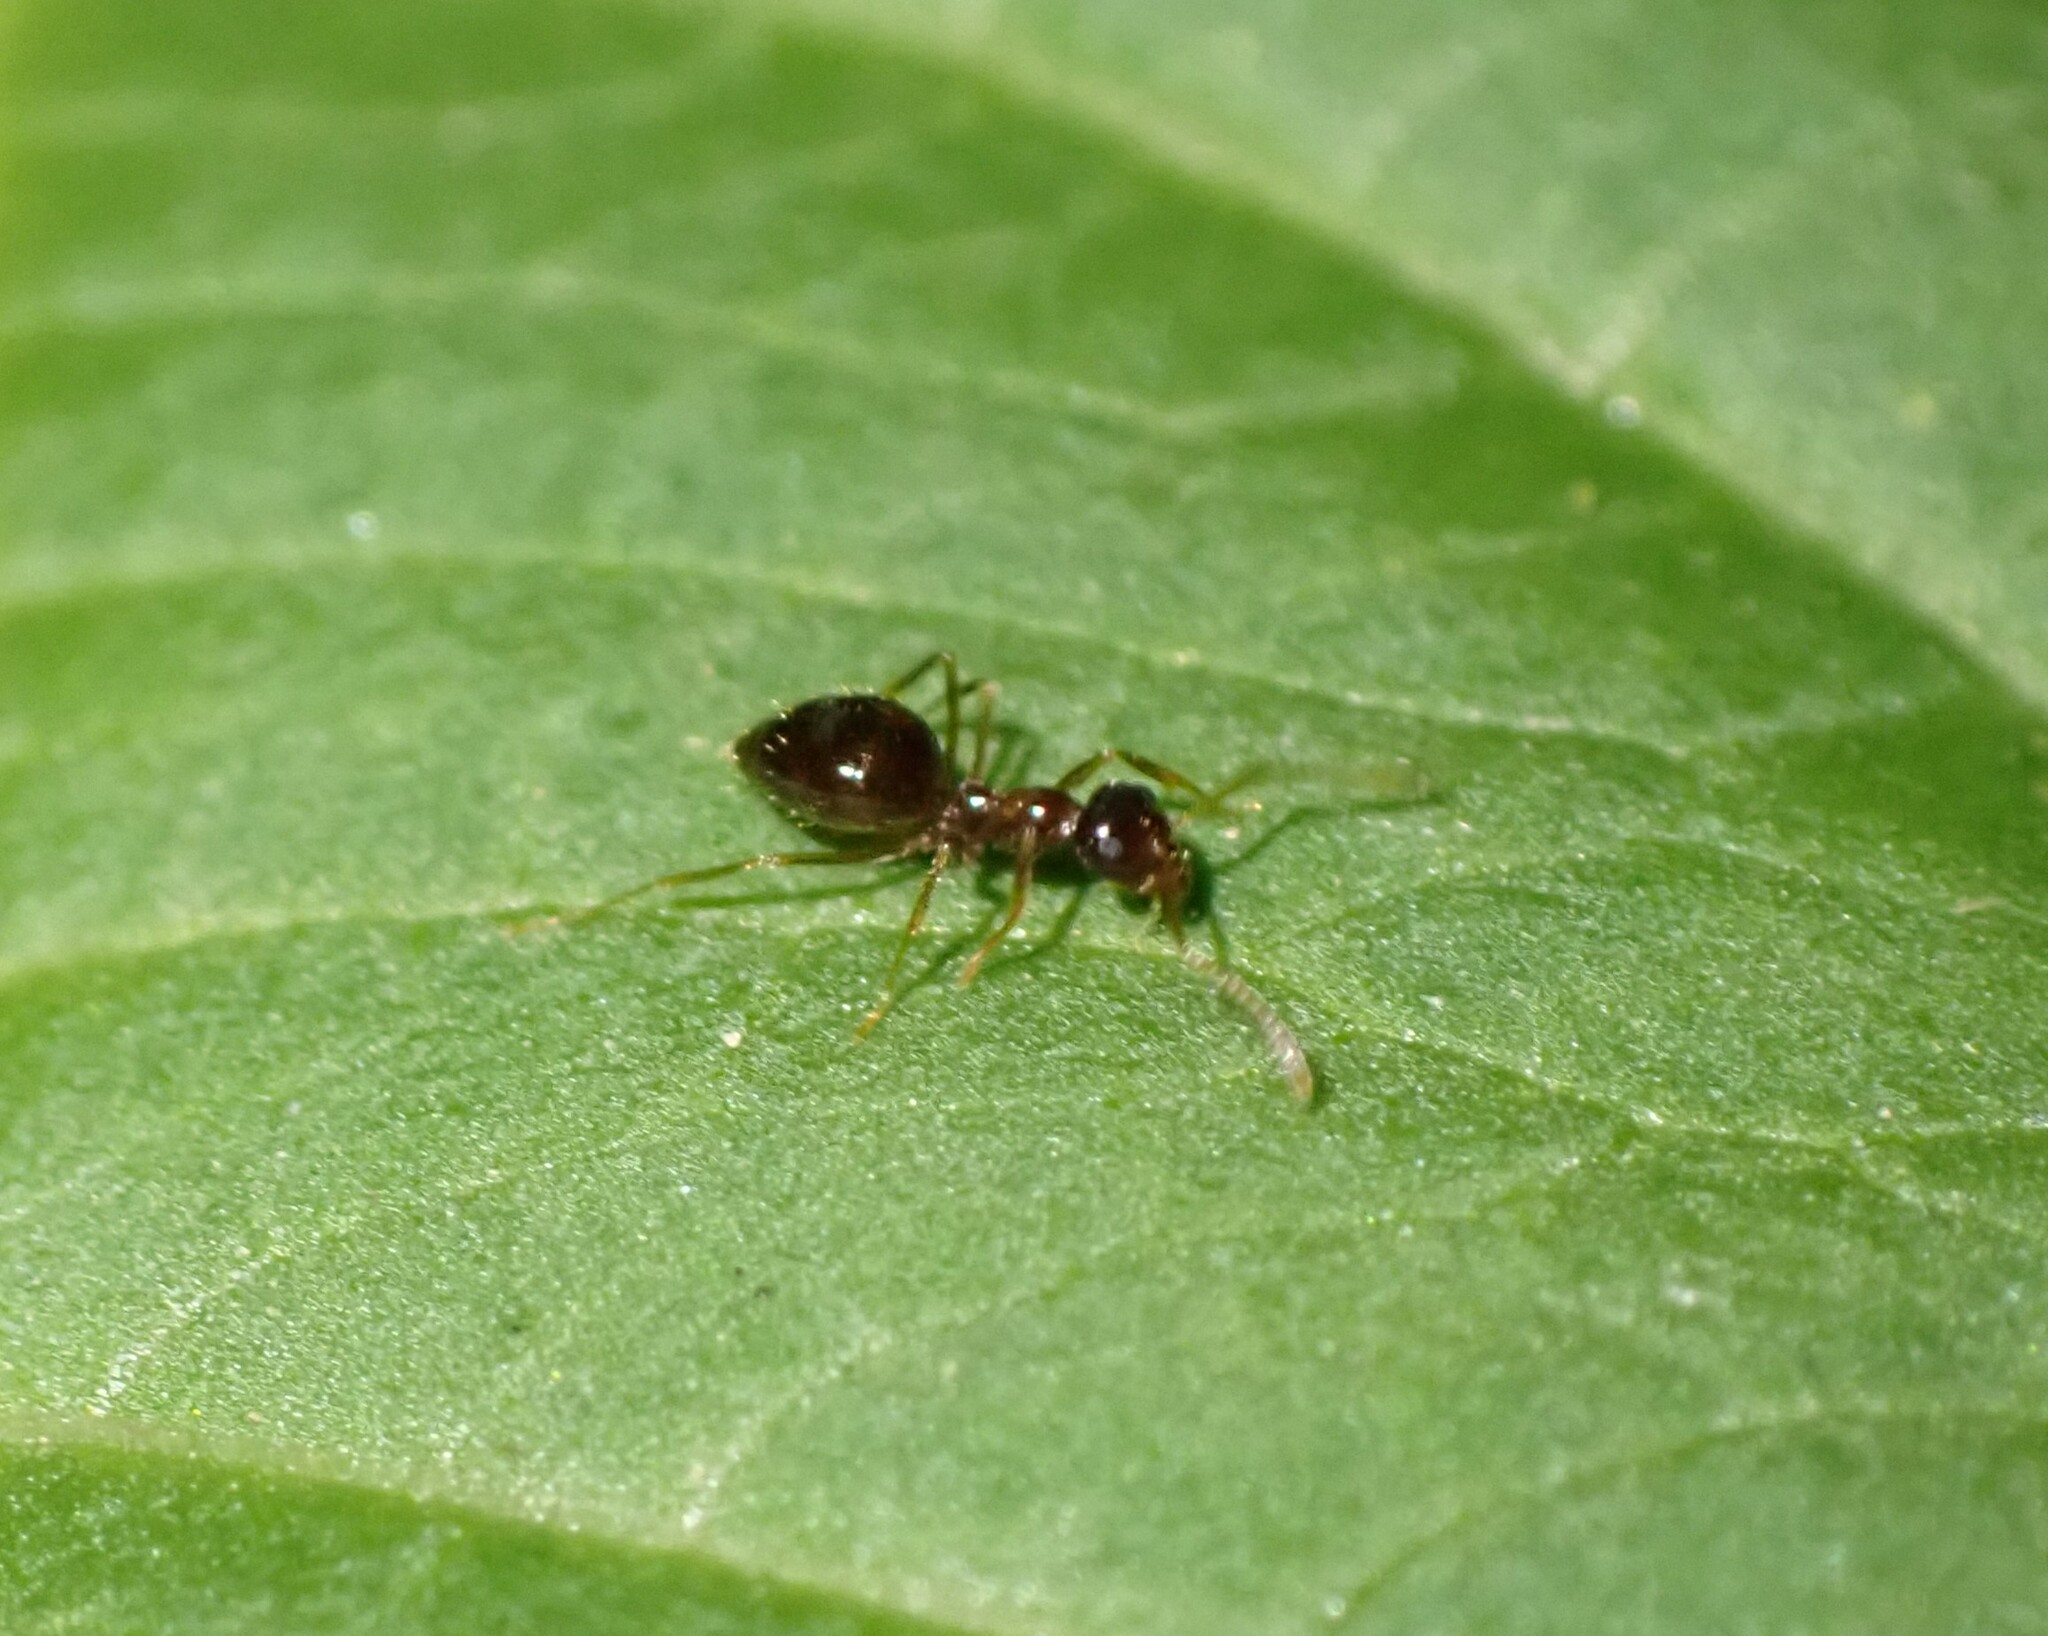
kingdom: Animalia
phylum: Arthropoda
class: Insecta
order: Hymenoptera
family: Formicidae
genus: Prenolepis
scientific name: Prenolepis nitens
